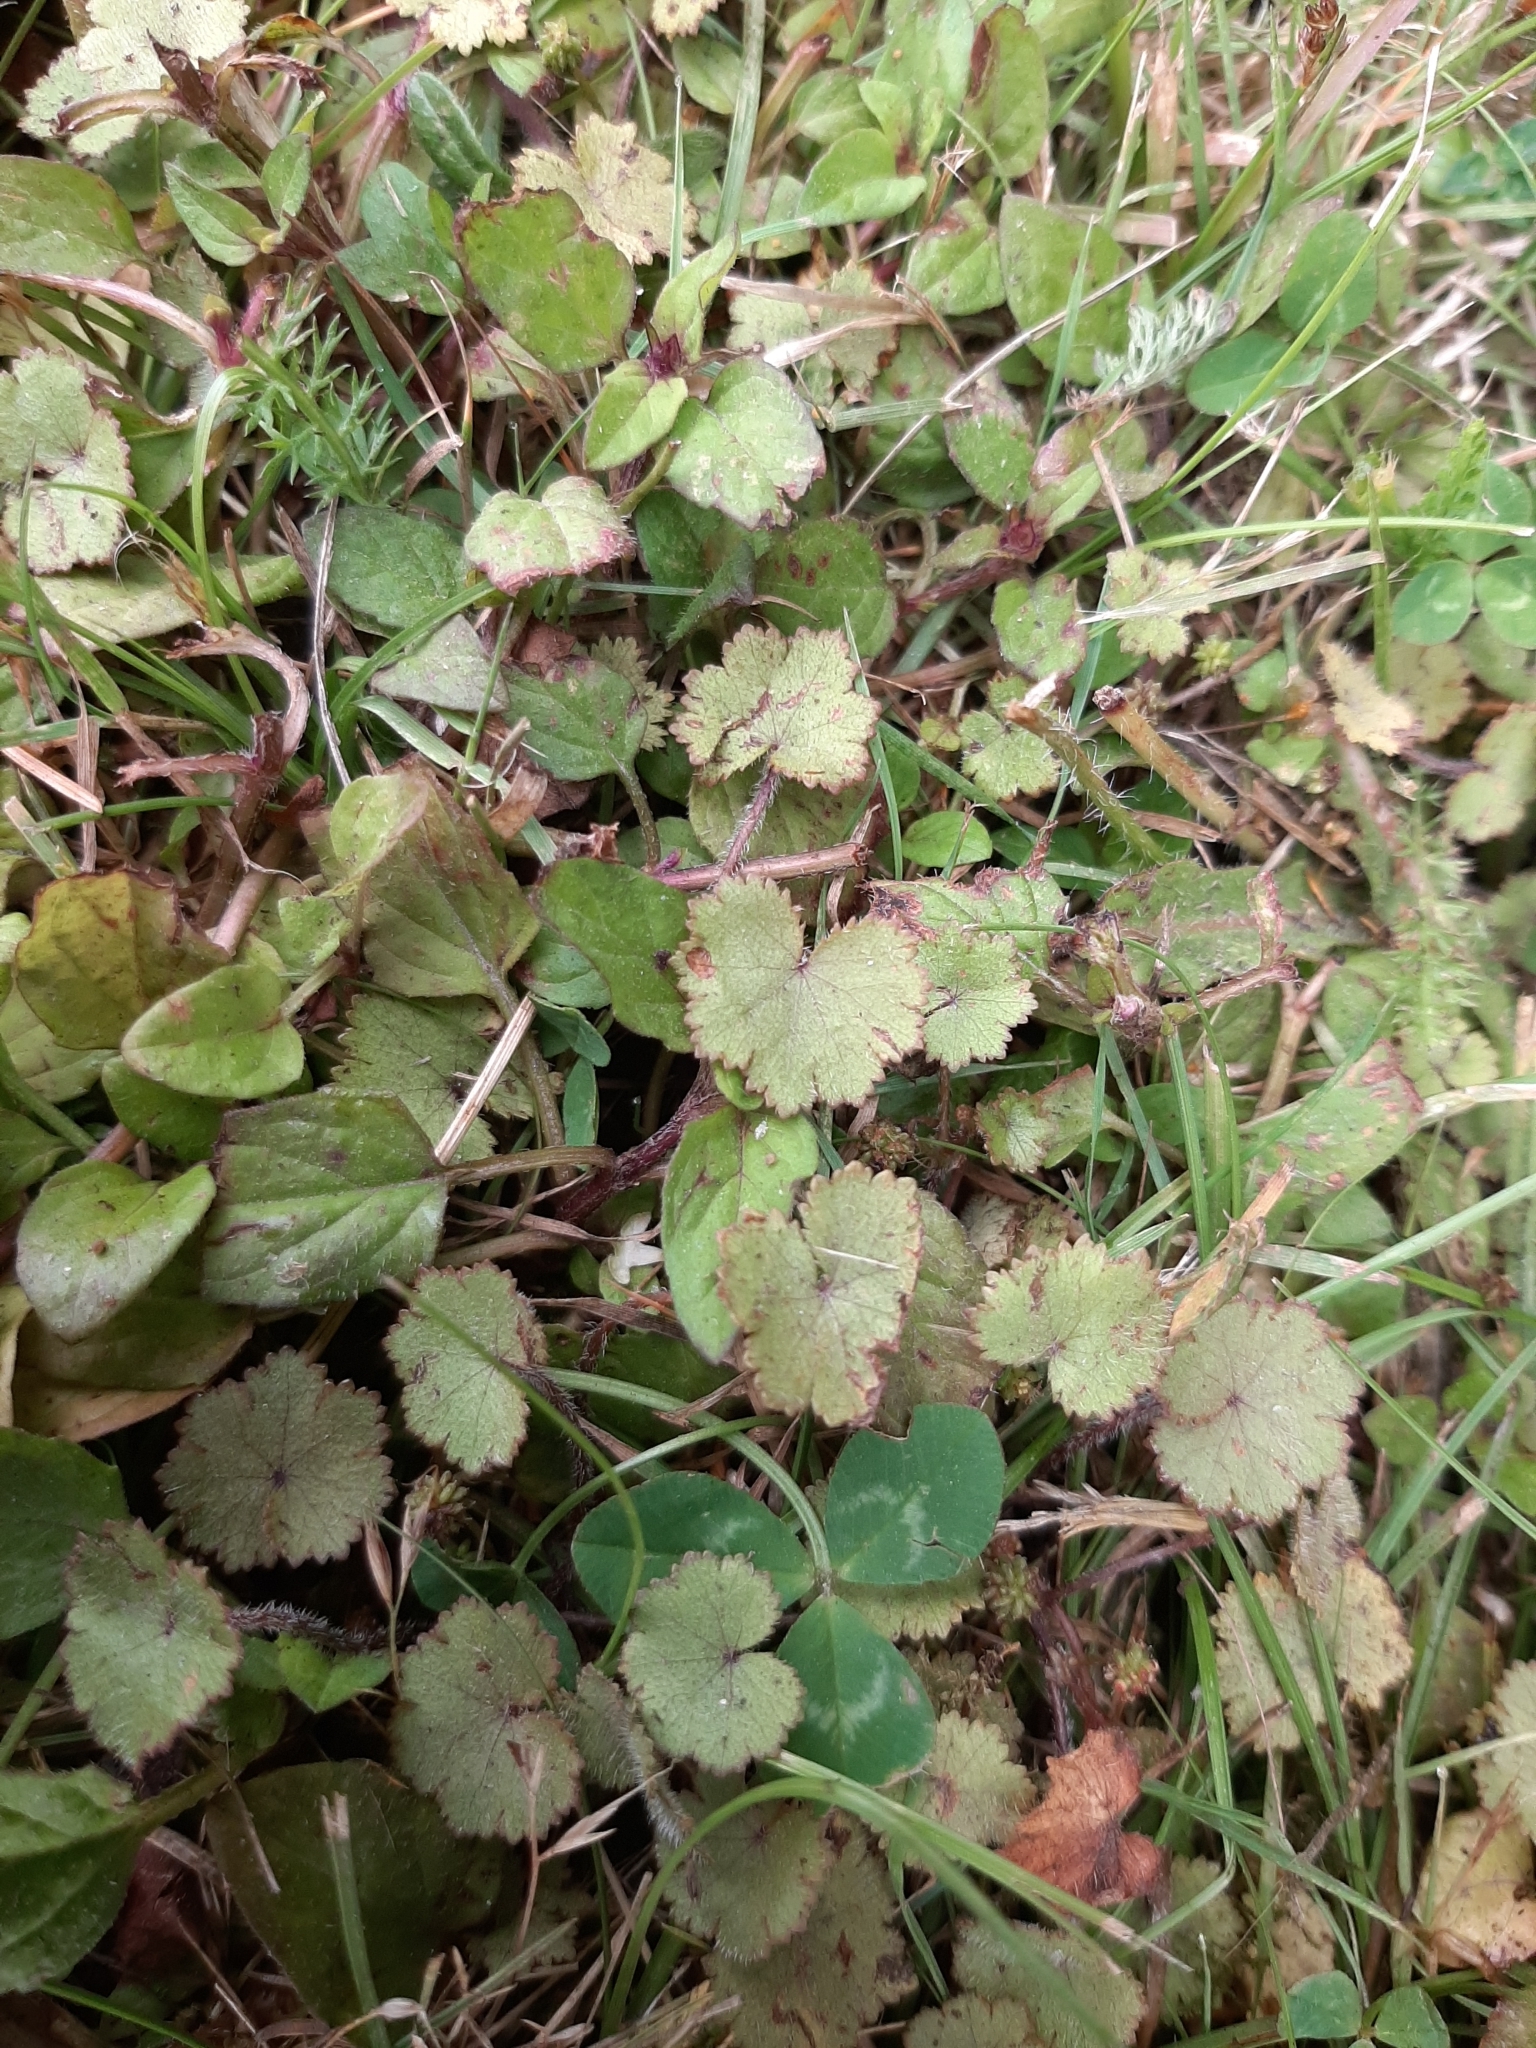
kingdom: Plantae
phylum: Tracheophyta
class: Magnoliopsida
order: Apiales
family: Araliaceae
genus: Hydrocotyle
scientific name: Hydrocotyle moschata
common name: Hairy pennywort
